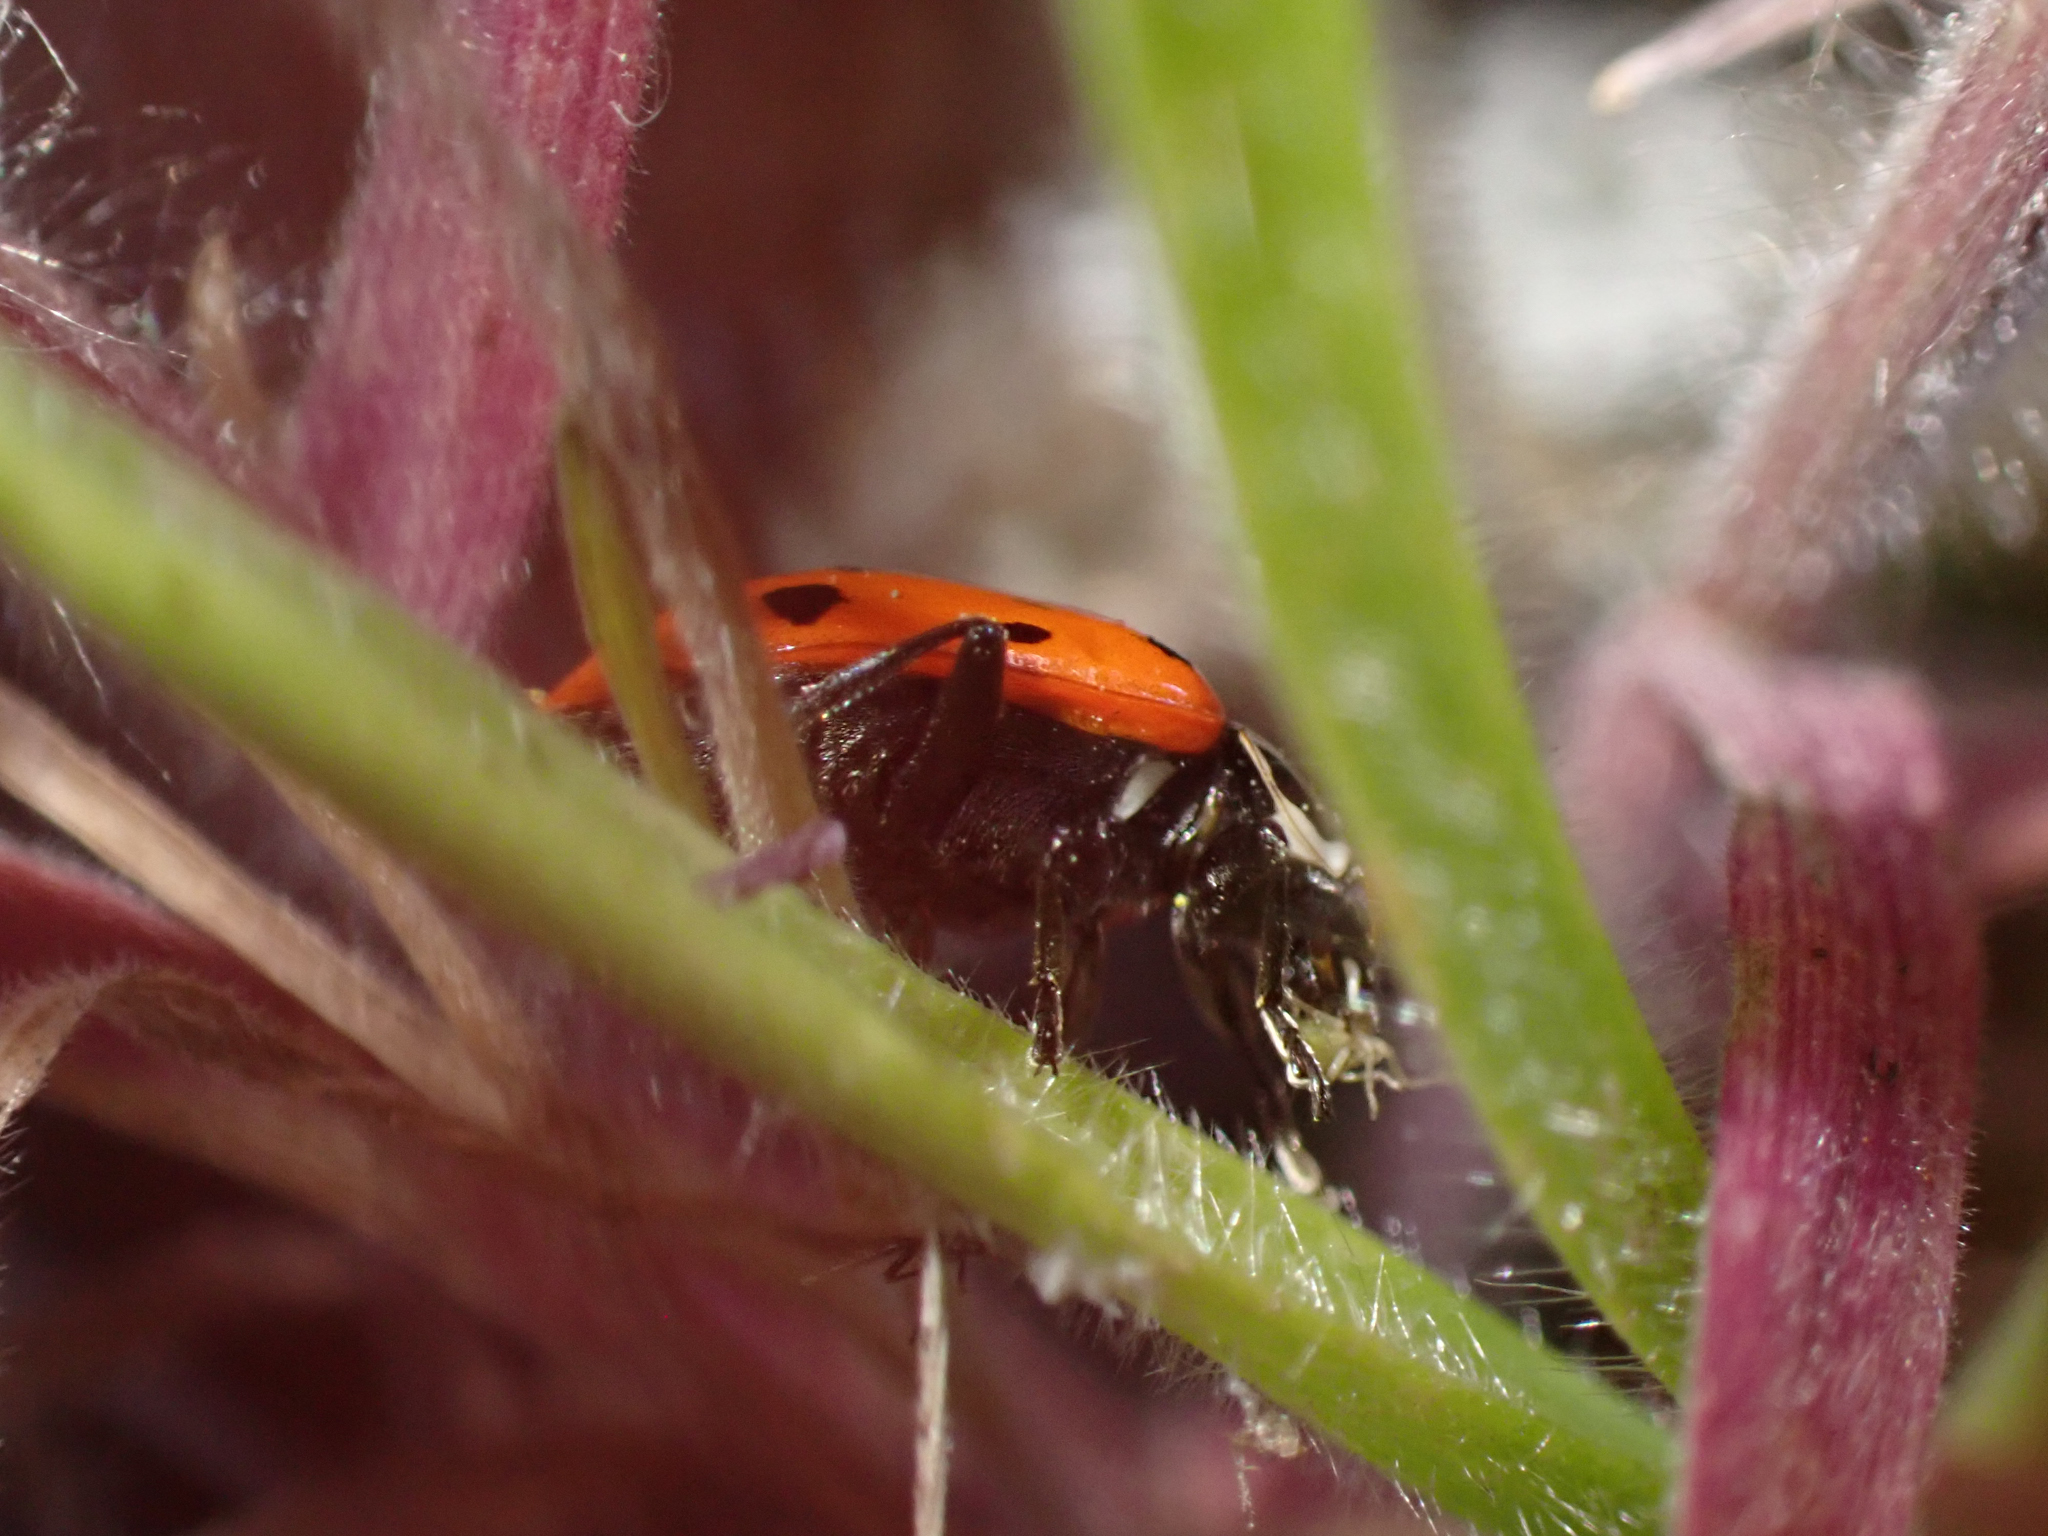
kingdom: Animalia
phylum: Arthropoda
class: Insecta
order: Coleoptera
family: Coccinellidae
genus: Hippodamia
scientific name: Hippodamia convergens
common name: Convergent lady beetle
